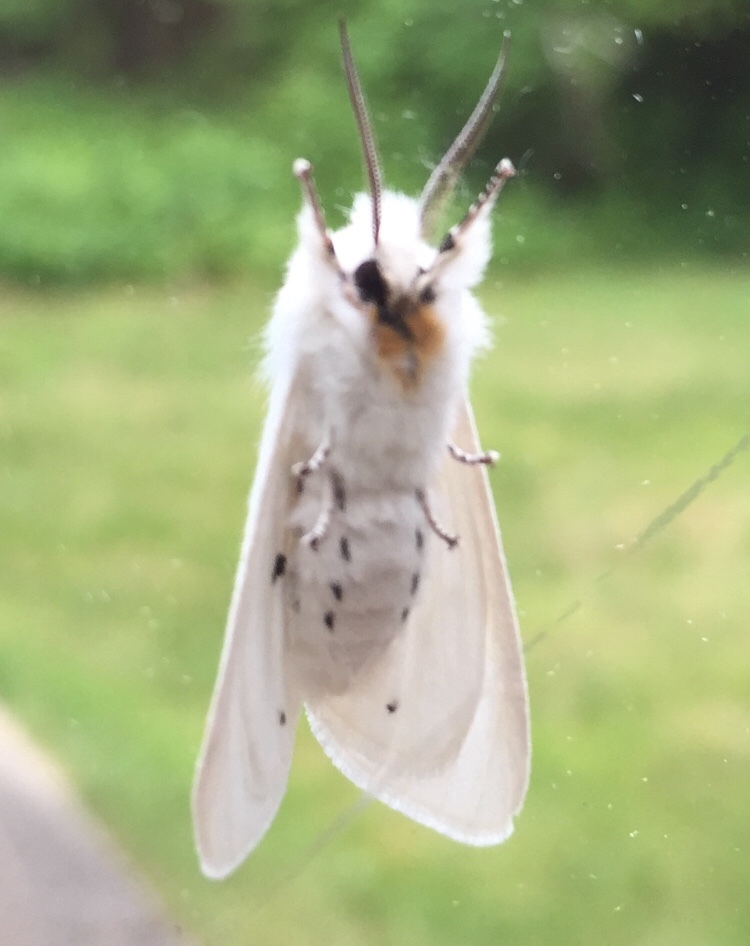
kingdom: Animalia
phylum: Arthropoda
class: Insecta
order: Lepidoptera
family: Erebidae
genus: Spilosoma
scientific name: Spilosoma virginica
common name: Virginia tiger moth
